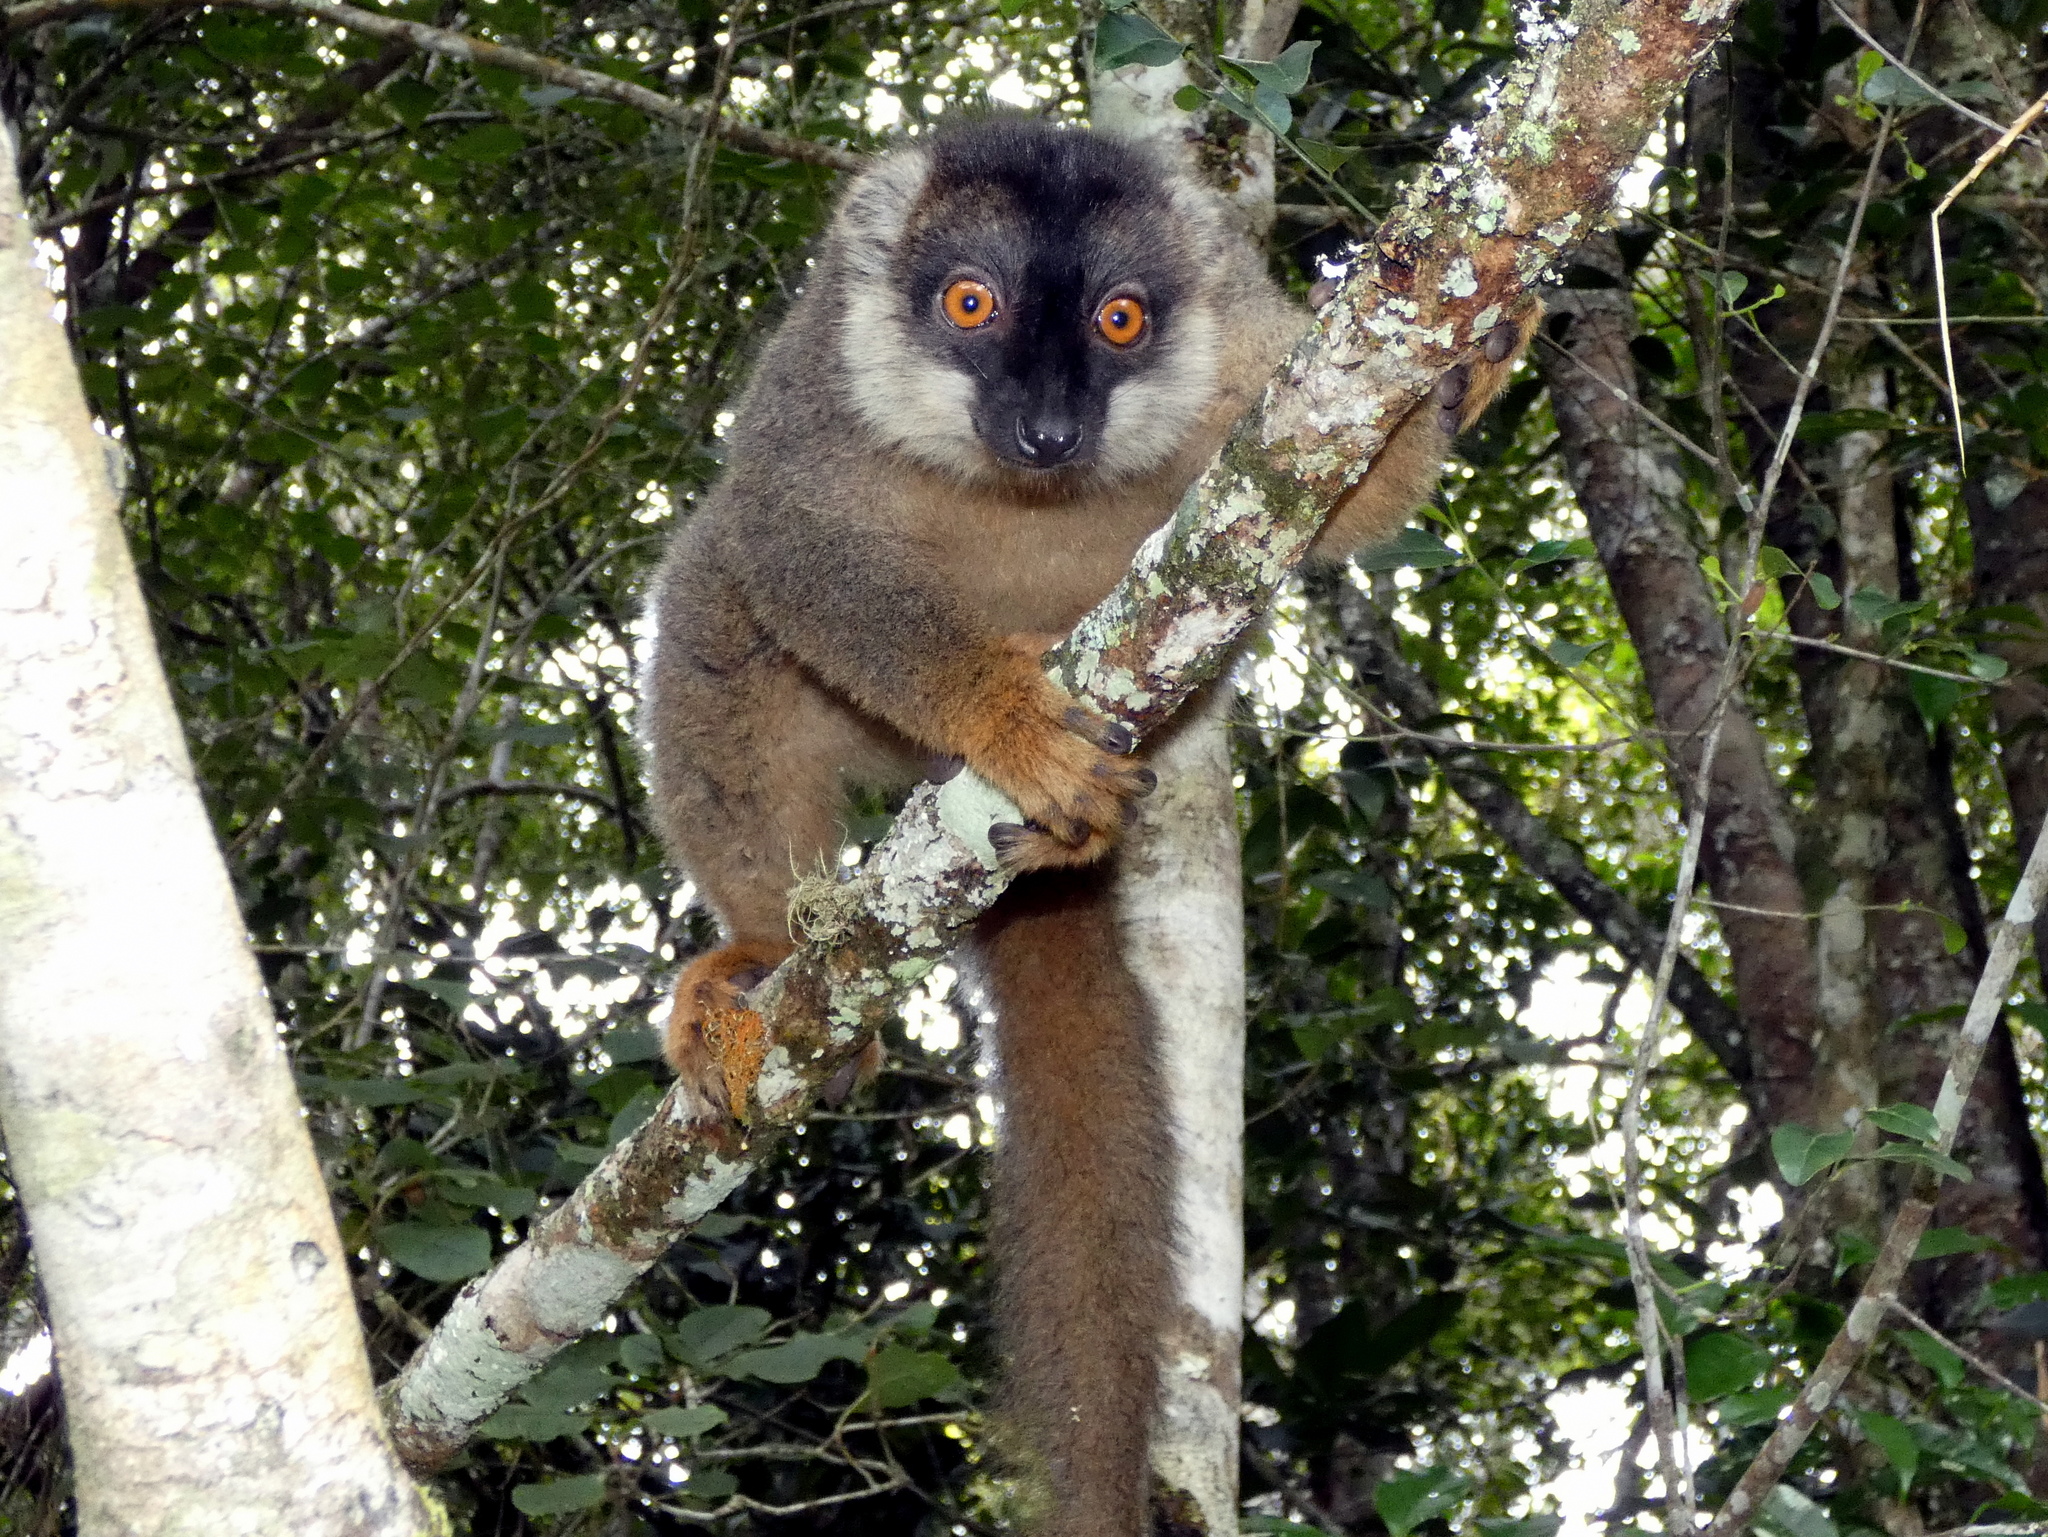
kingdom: Animalia
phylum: Chordata
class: Mammalia
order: Primates
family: Lemuridae
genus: Eulemur
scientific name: Eulemur fulvus
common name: Brown lemur
